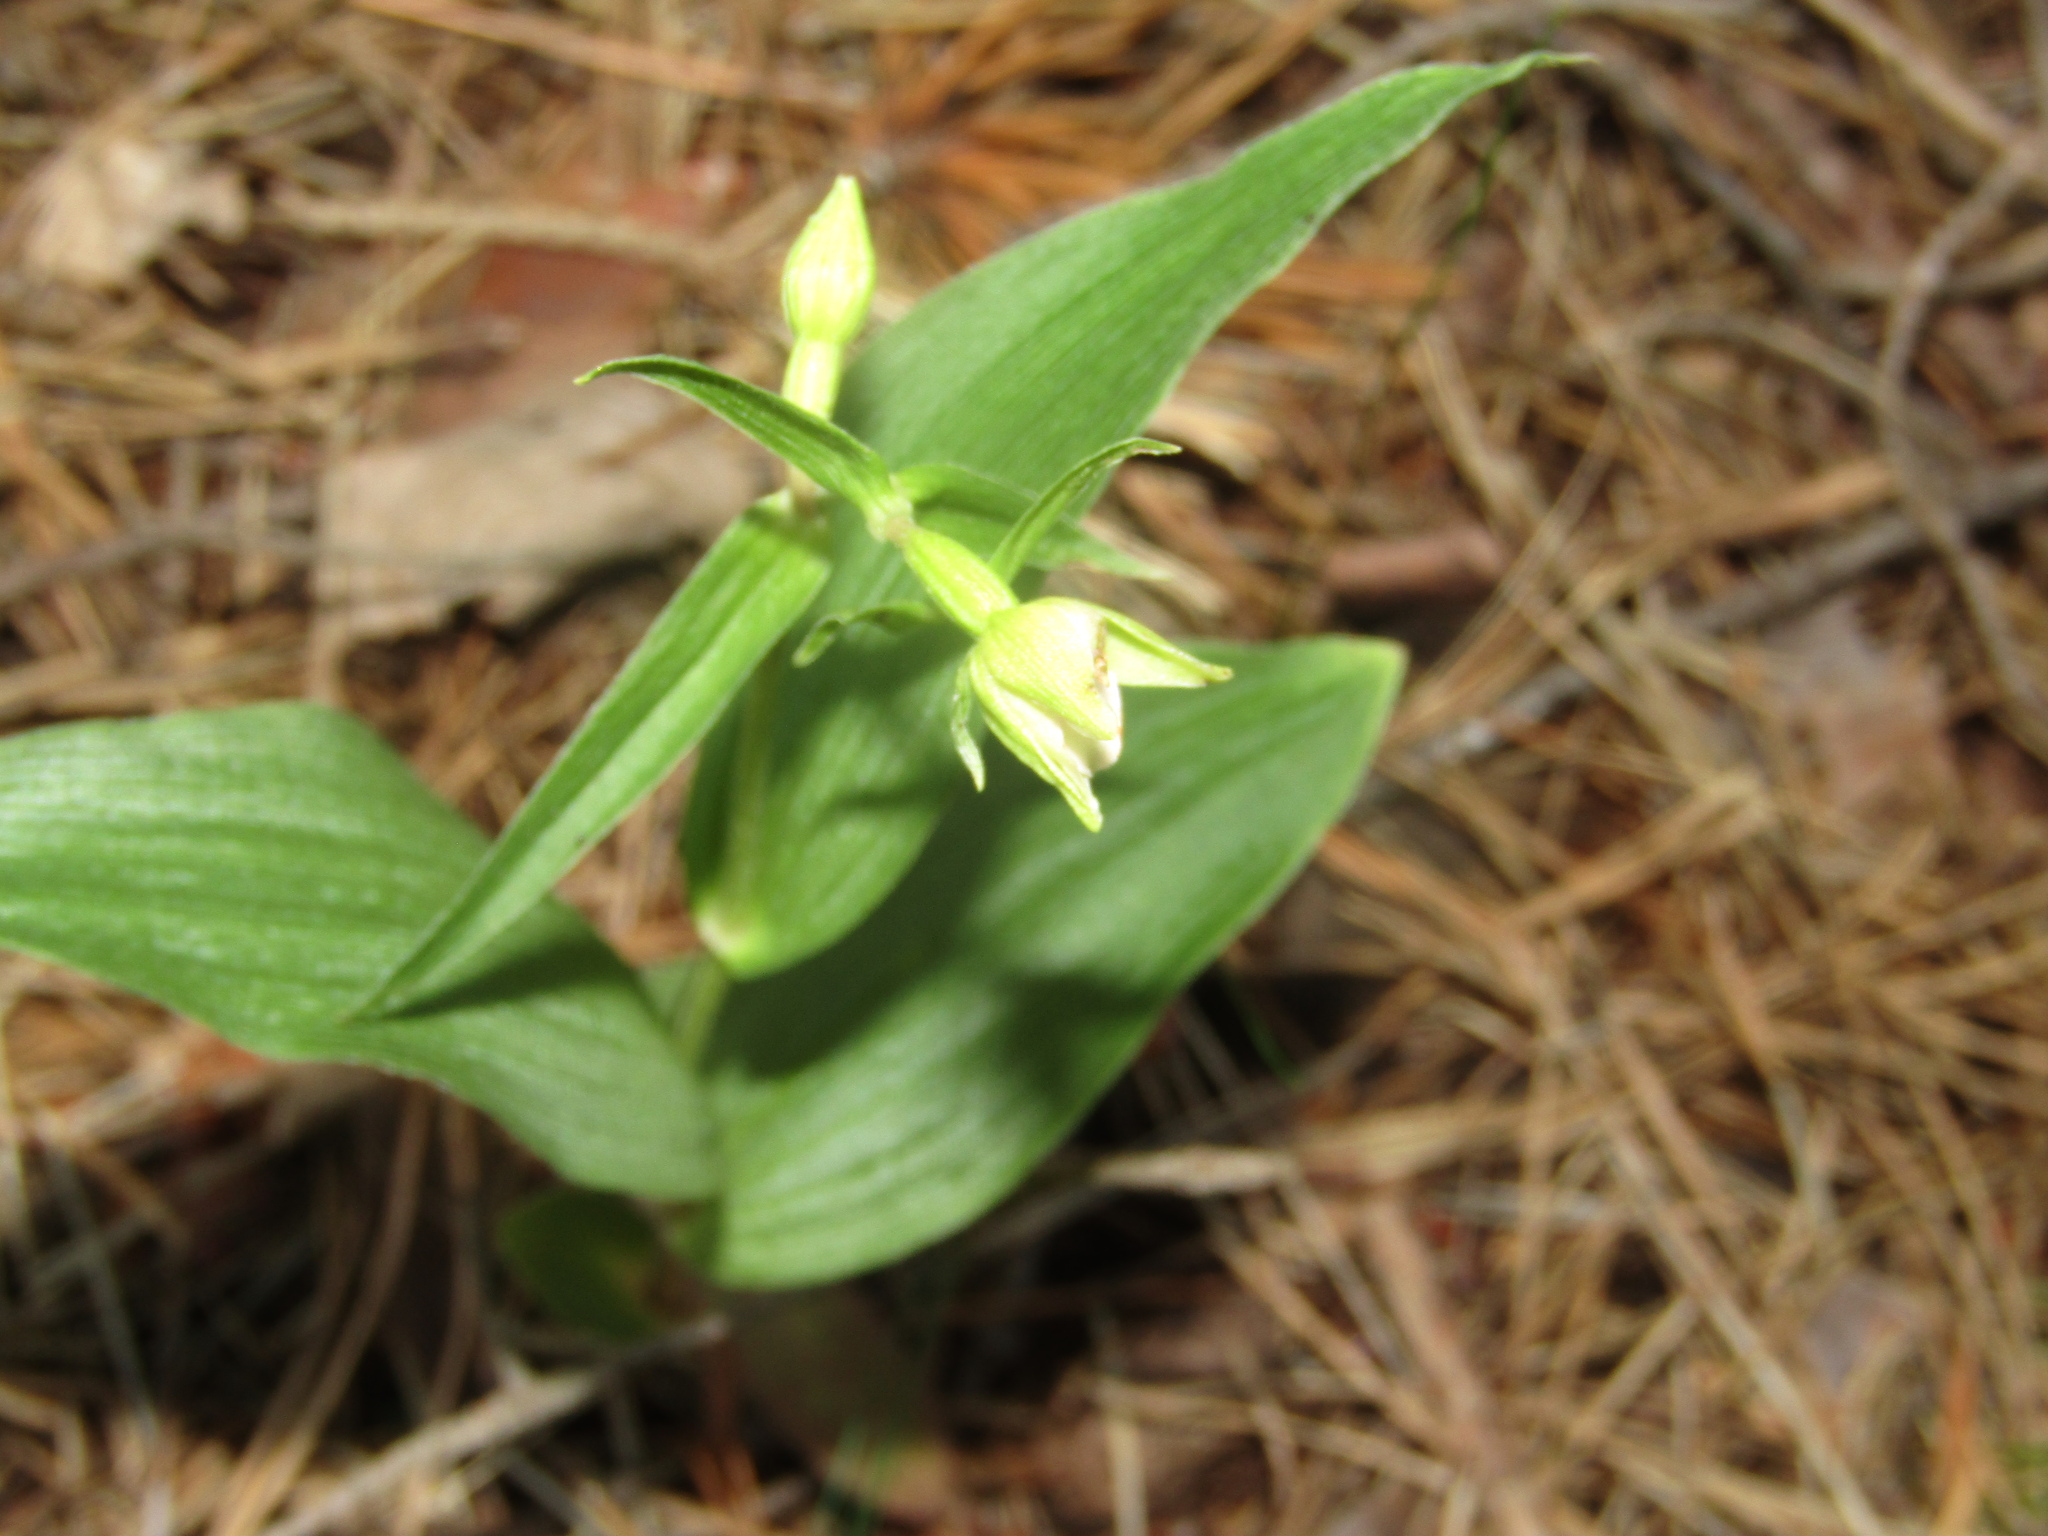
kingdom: Plantae
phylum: Tracheophyta
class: Liliopsida
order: Asparagales
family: Orchidaceae
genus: Epipactis
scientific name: Epipactis helleborine
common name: Broad-leaved helleborine
